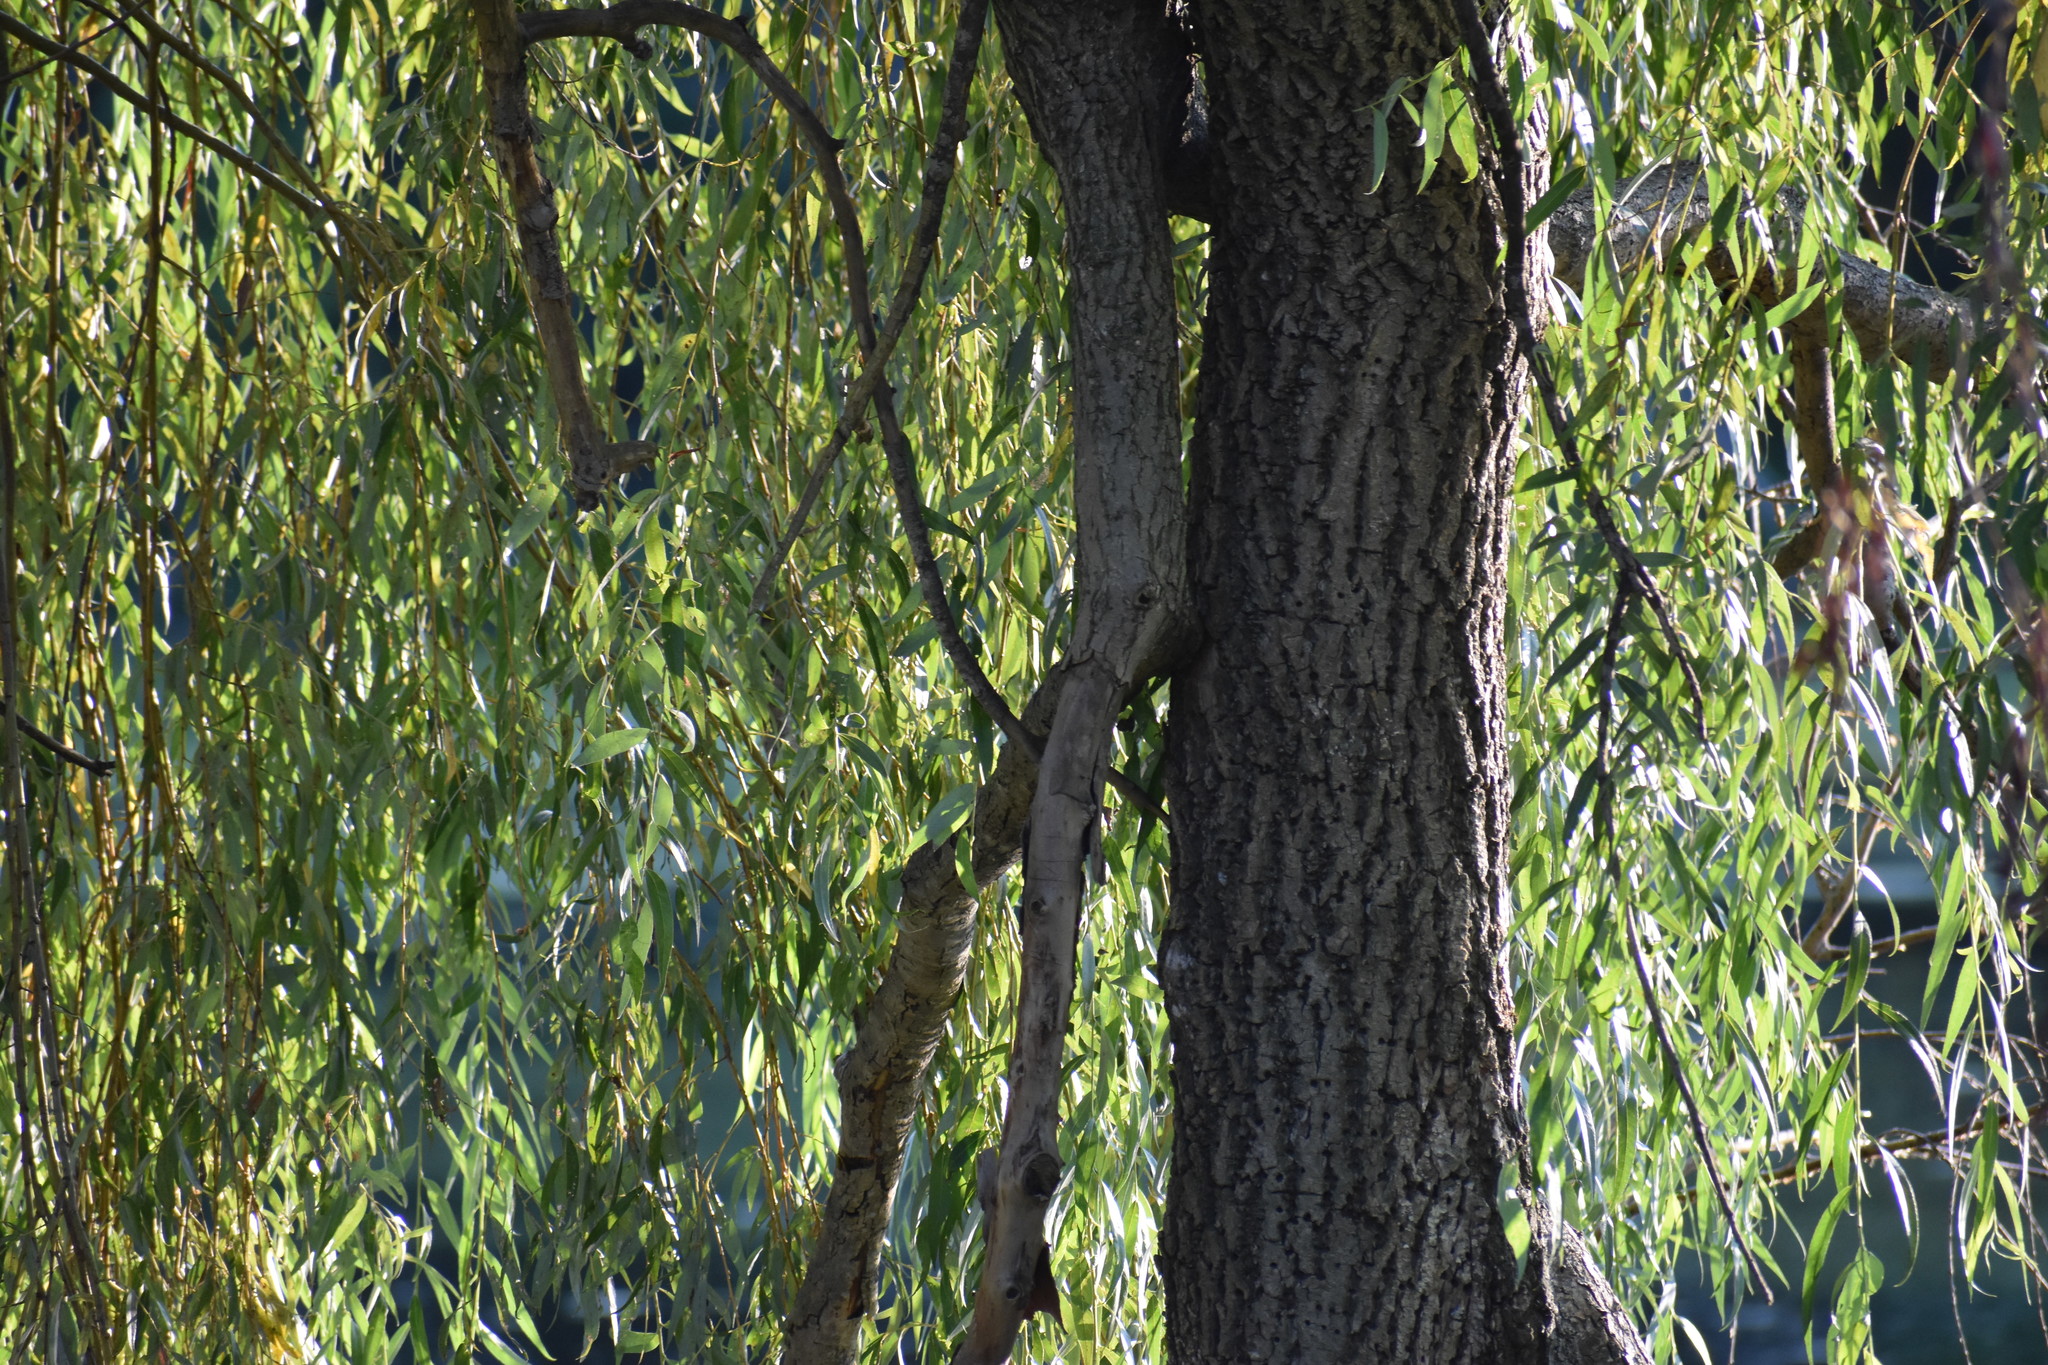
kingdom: Plantae
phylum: Tracheophyta
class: Magnoliopsida
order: Malpighiales
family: Salicaceae
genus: Salix
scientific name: Salix babylonica
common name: Weeping willow
